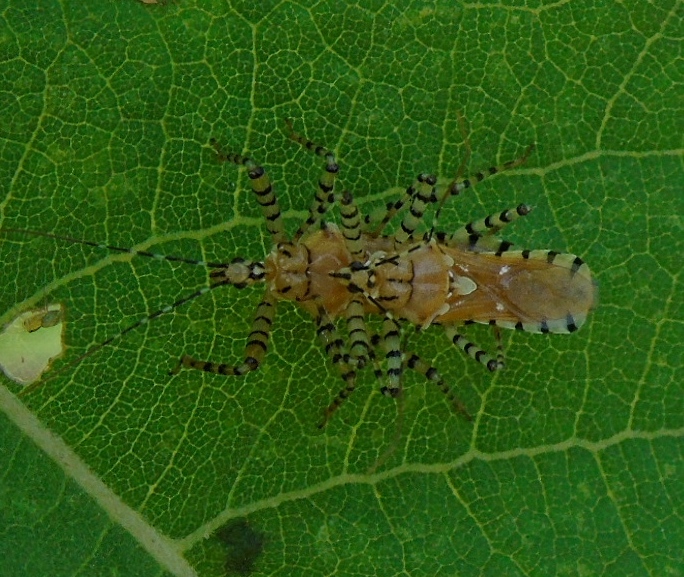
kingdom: Animalia
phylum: Arthropoda
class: Insecta
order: Hemiptera
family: Reduviidae
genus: Pselliopus
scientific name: Pselliopus
